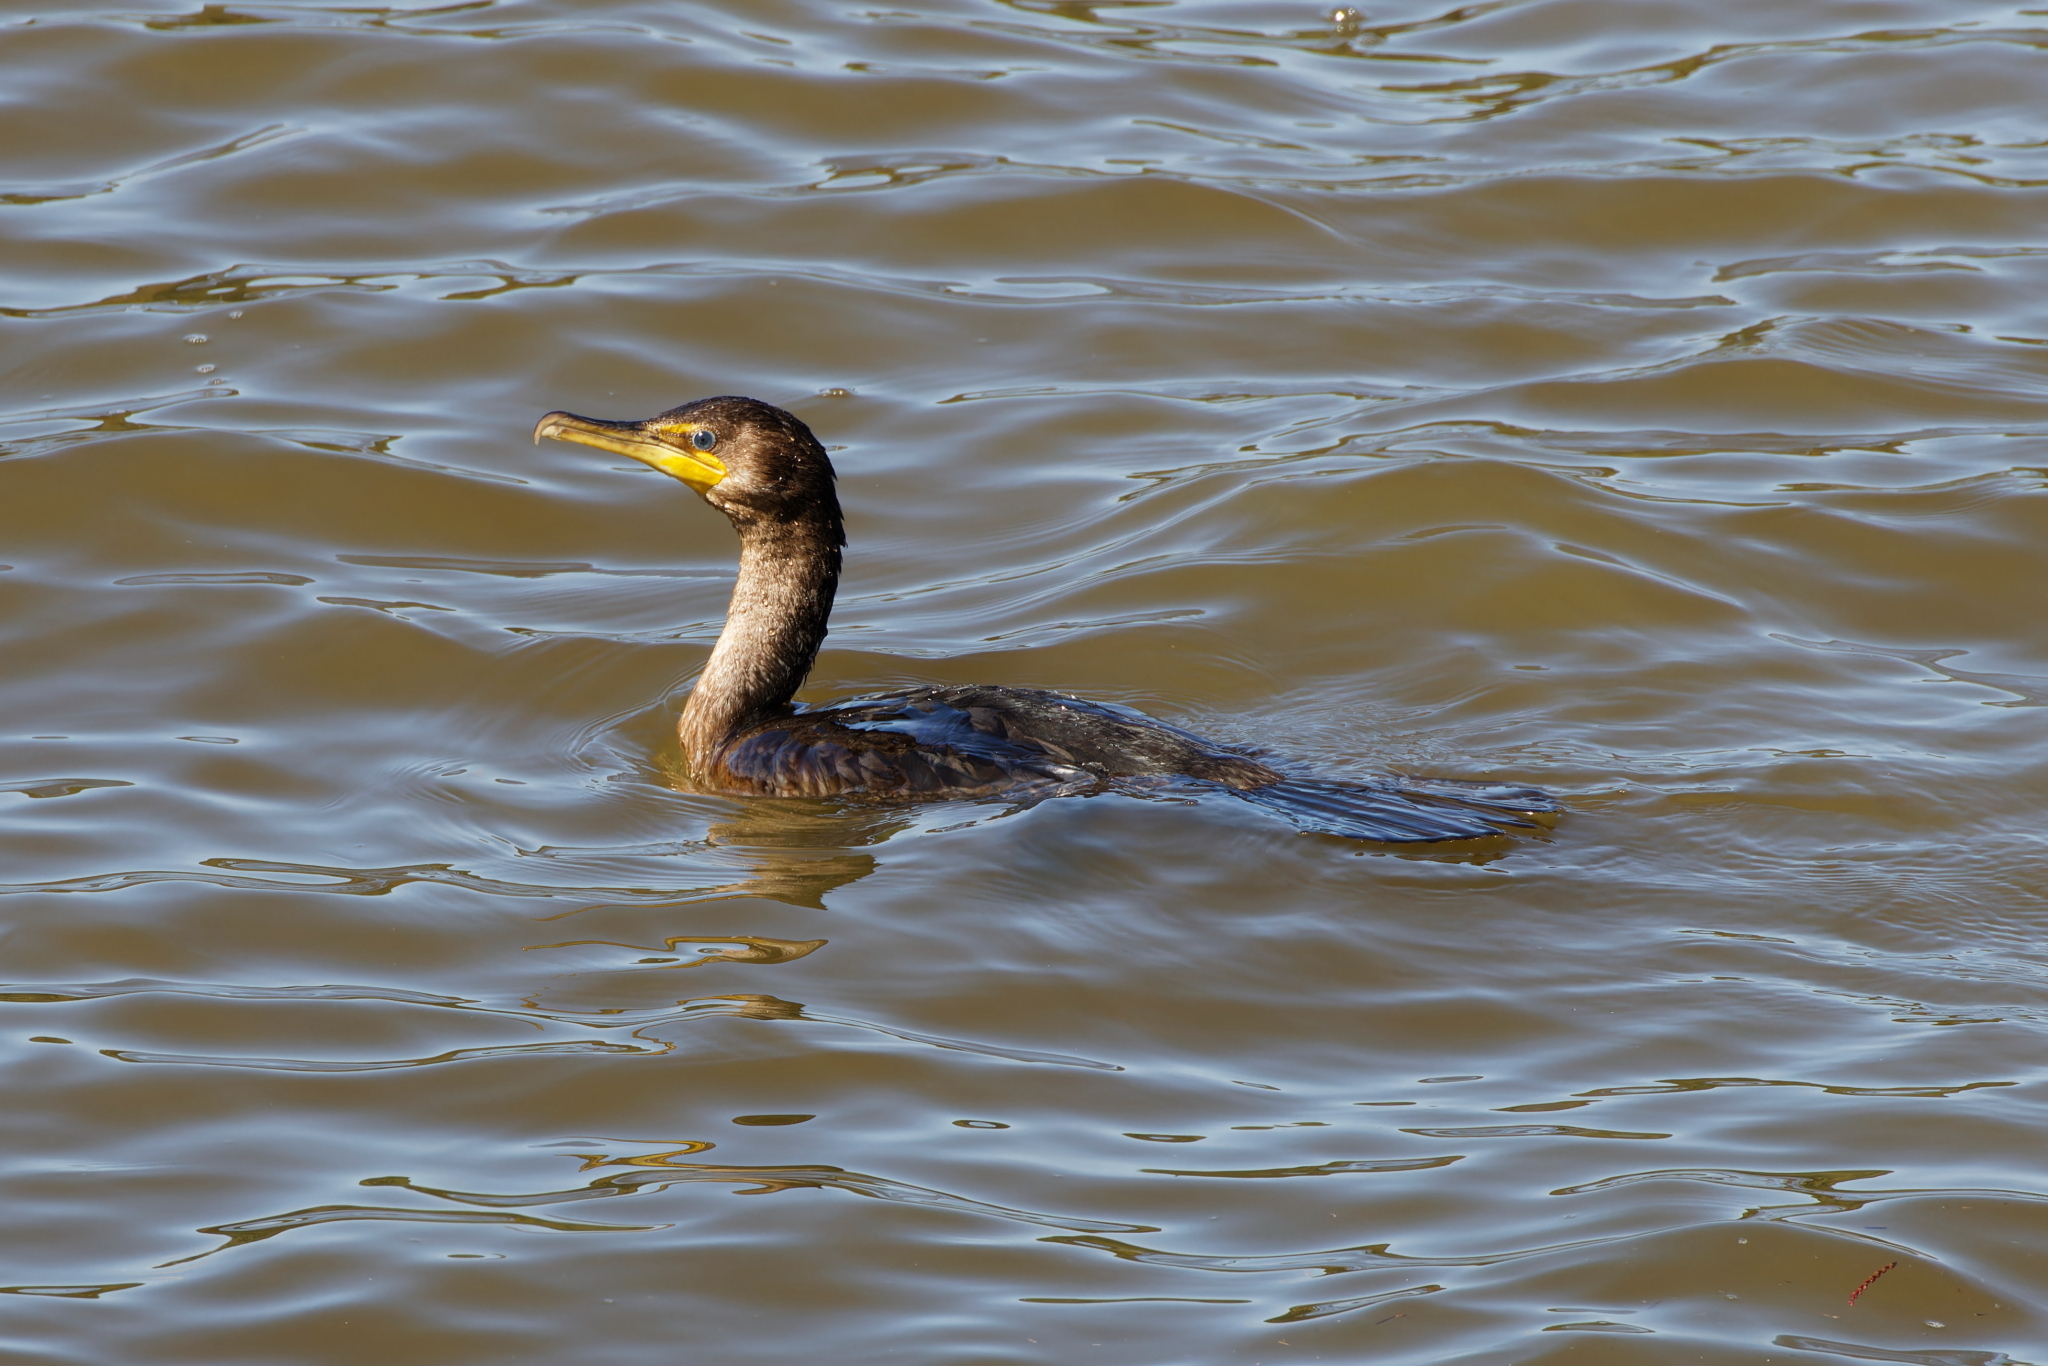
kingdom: Animalia
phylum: Chordata
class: Aves
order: Suliformes
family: Phalacrocoracidae
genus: Phalacrocorax
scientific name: Phalacrocorax auritus
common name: Double-crested cormorant
